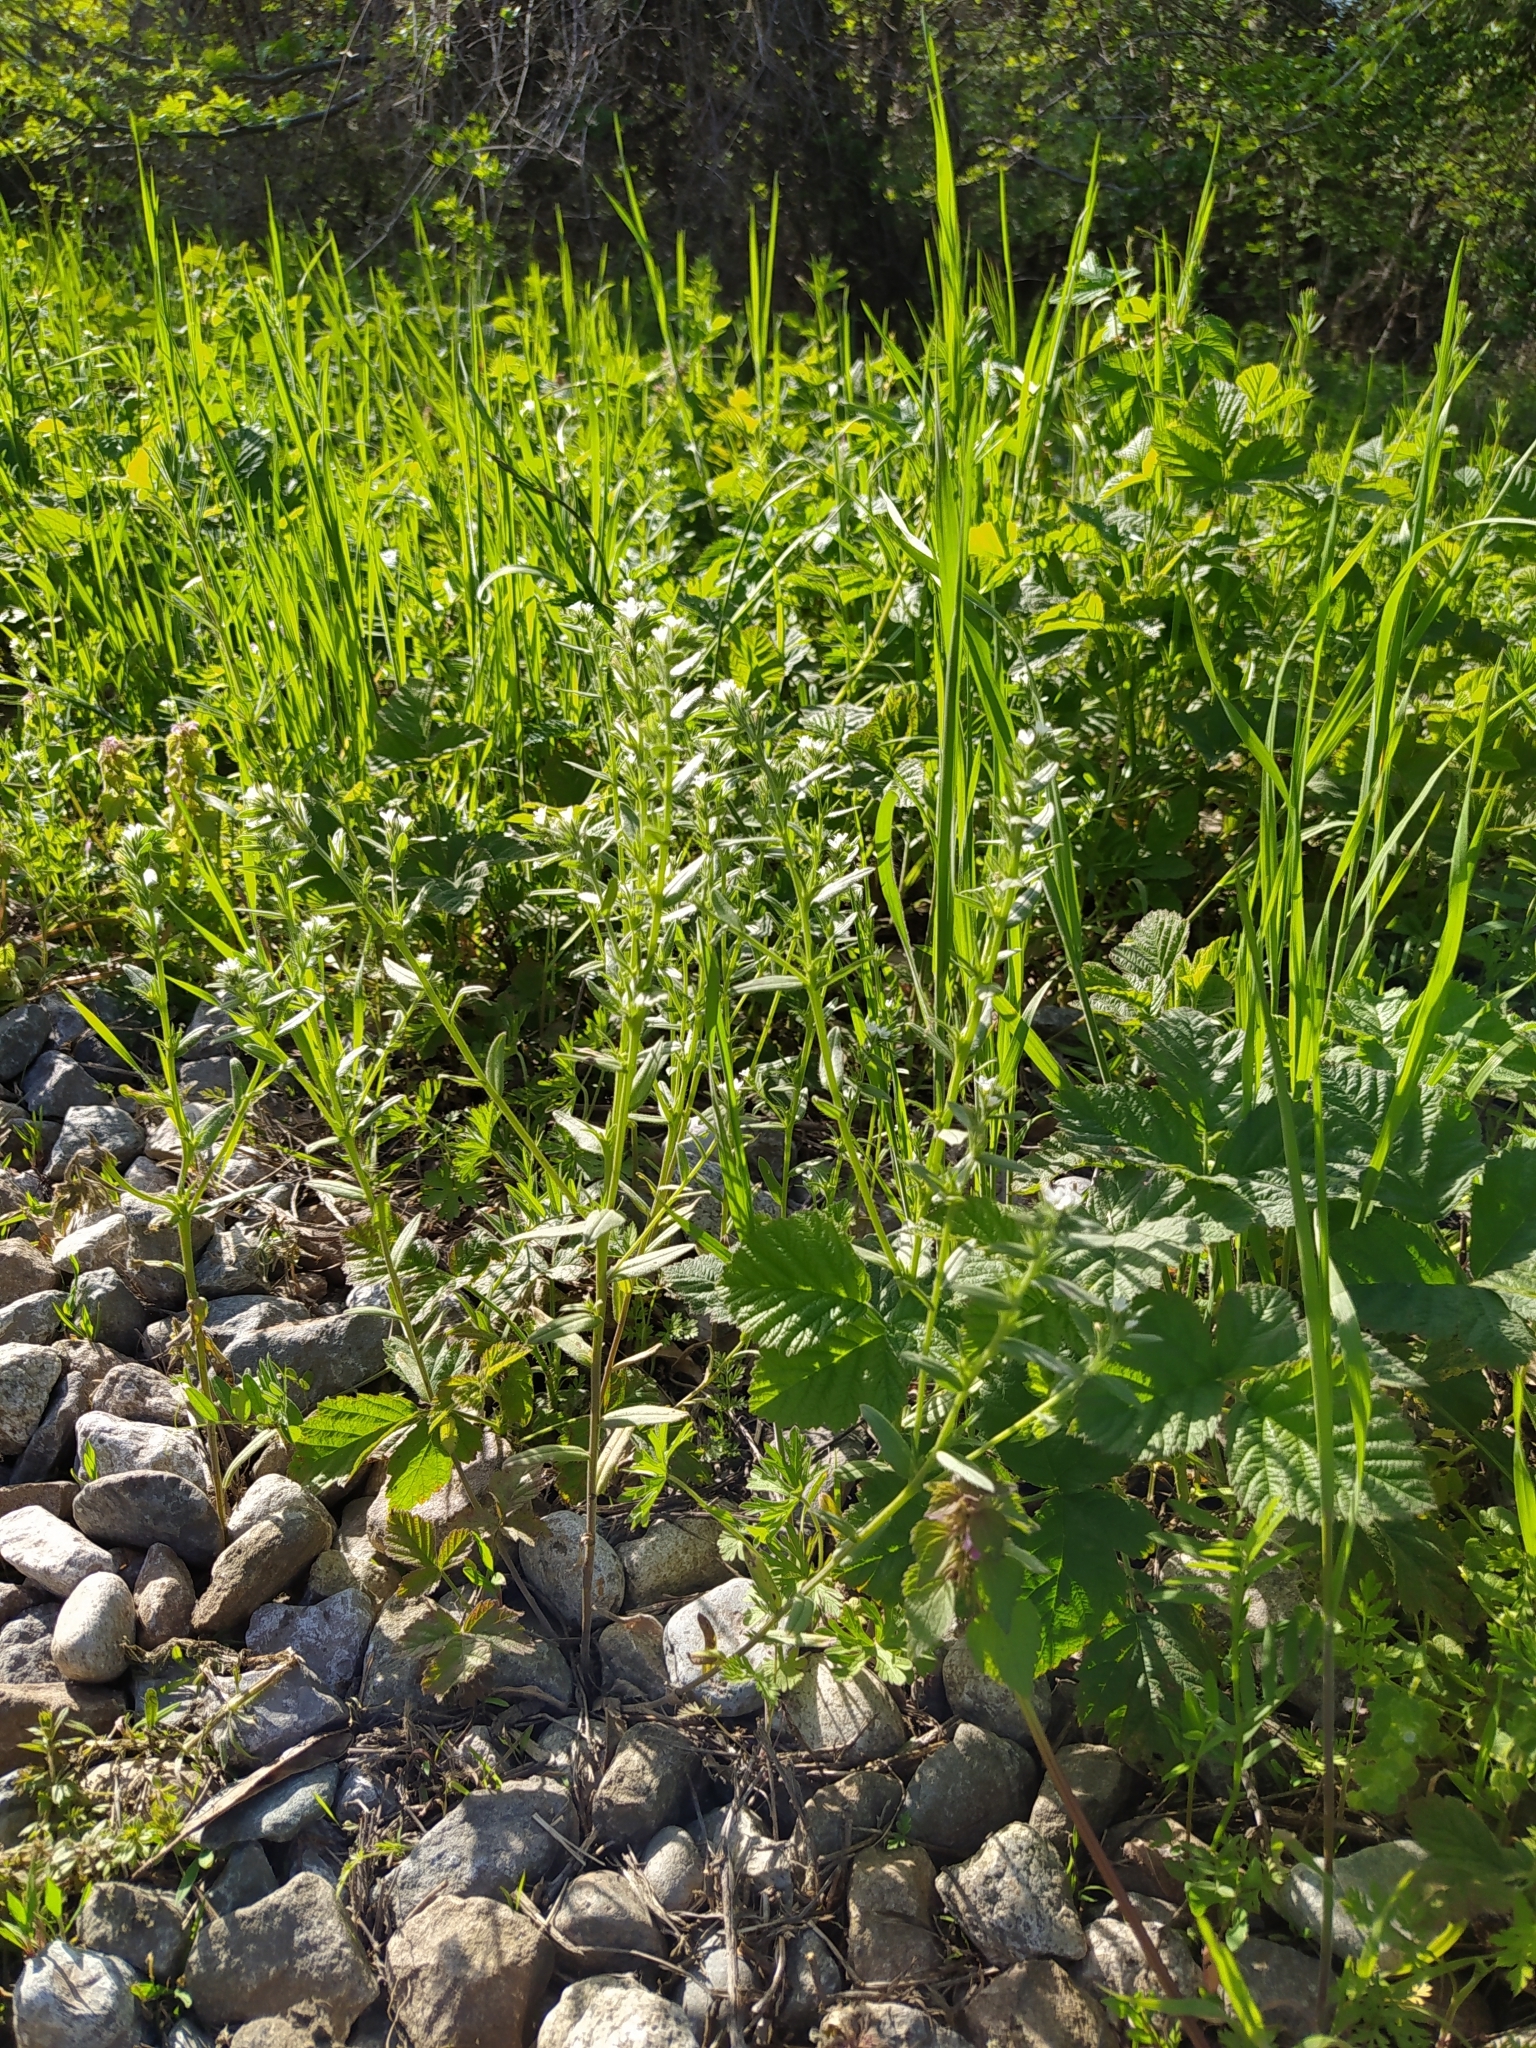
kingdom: Plantae
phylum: Tracheophyta
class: Magnoliopsida
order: Boraginales
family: Boraginaceae
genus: Buglossoides
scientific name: Buglossoides arvensis
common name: Corn gromwell
